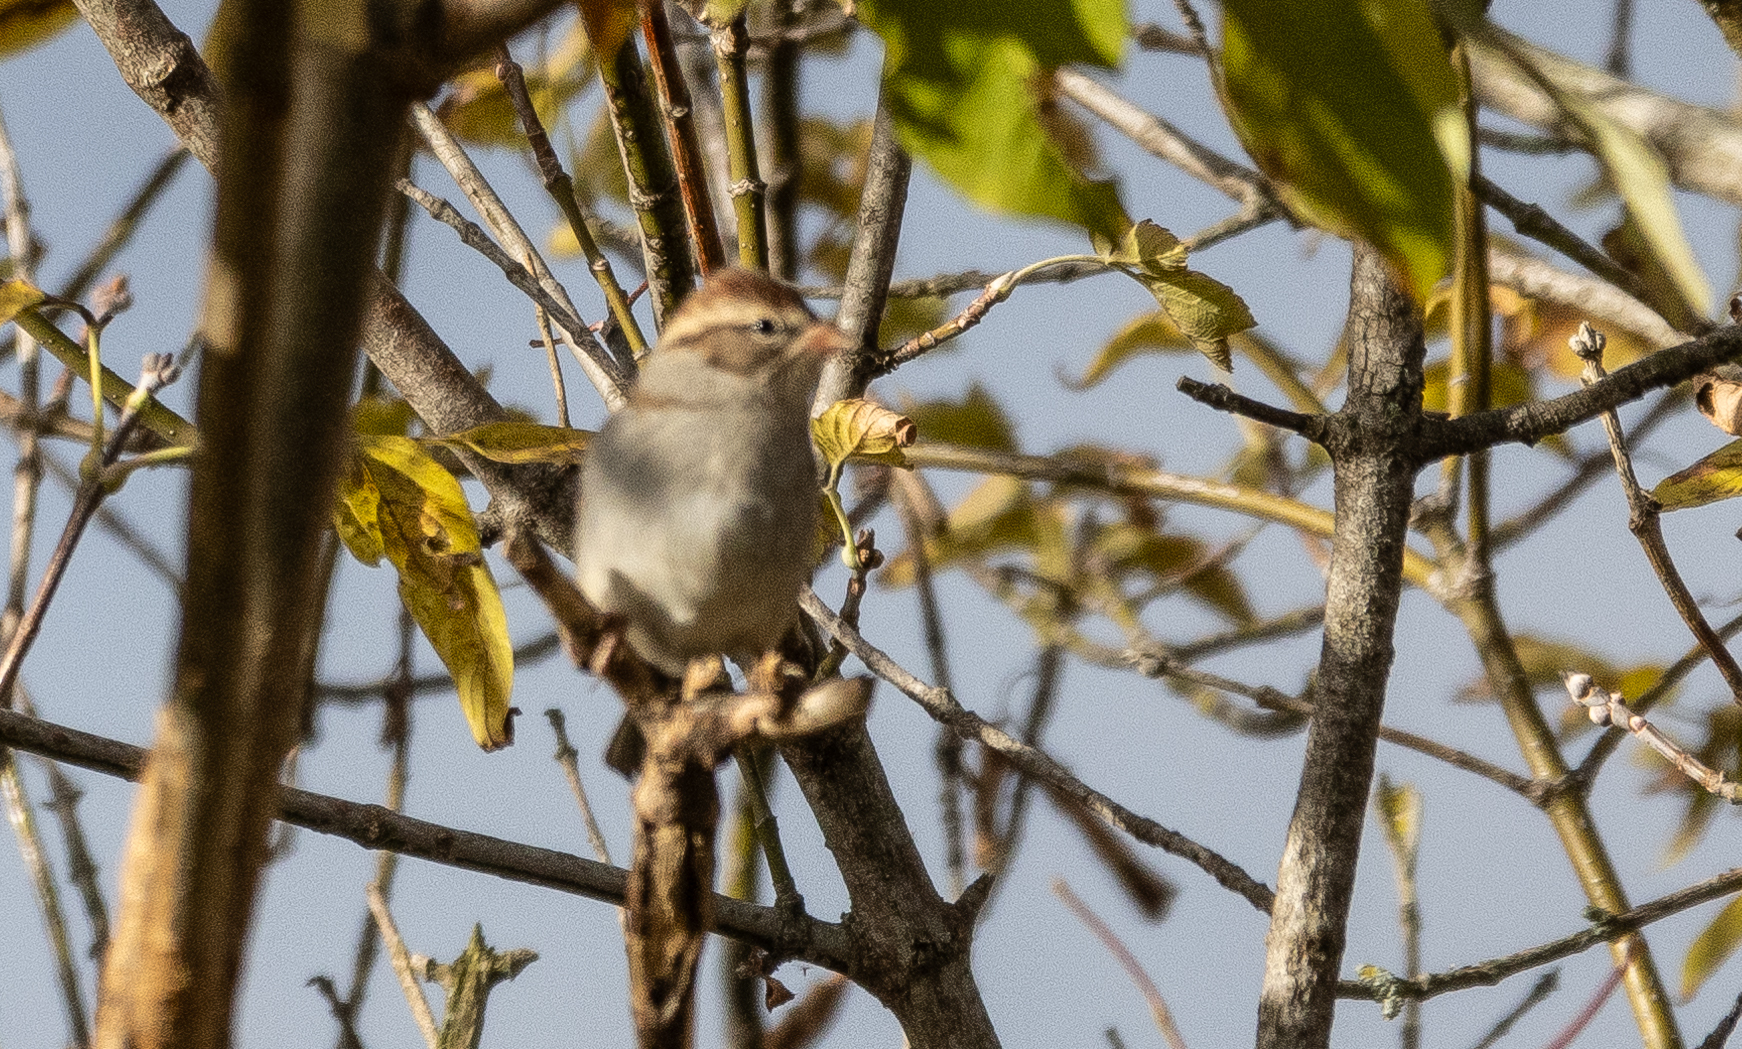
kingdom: Animalia
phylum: Chordata
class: Aves
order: Passeriformes
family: Passerellidae
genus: Spizella
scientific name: Spizella passerina
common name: Chipping sparrow
